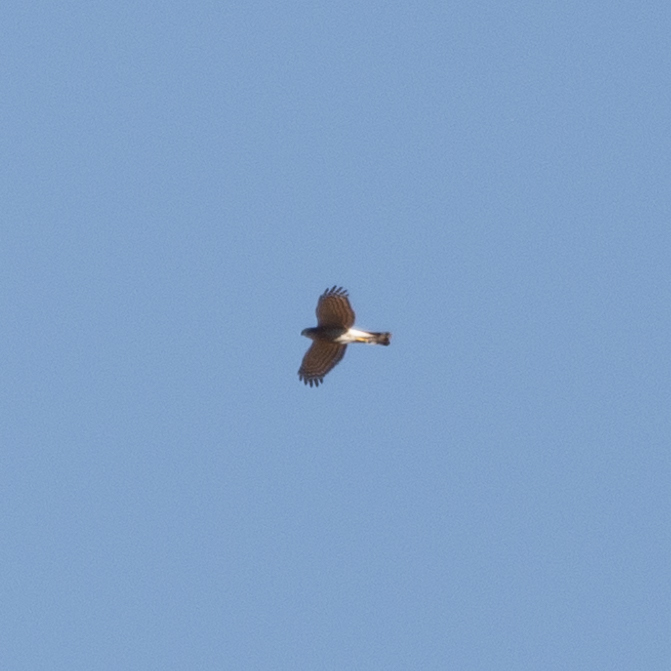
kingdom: Animalia
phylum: Chordata
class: Aves
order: Accipitriformes
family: Accipitridae
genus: Accipiter
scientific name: Accipiter nisus
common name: Eurasian sparrowhawk
